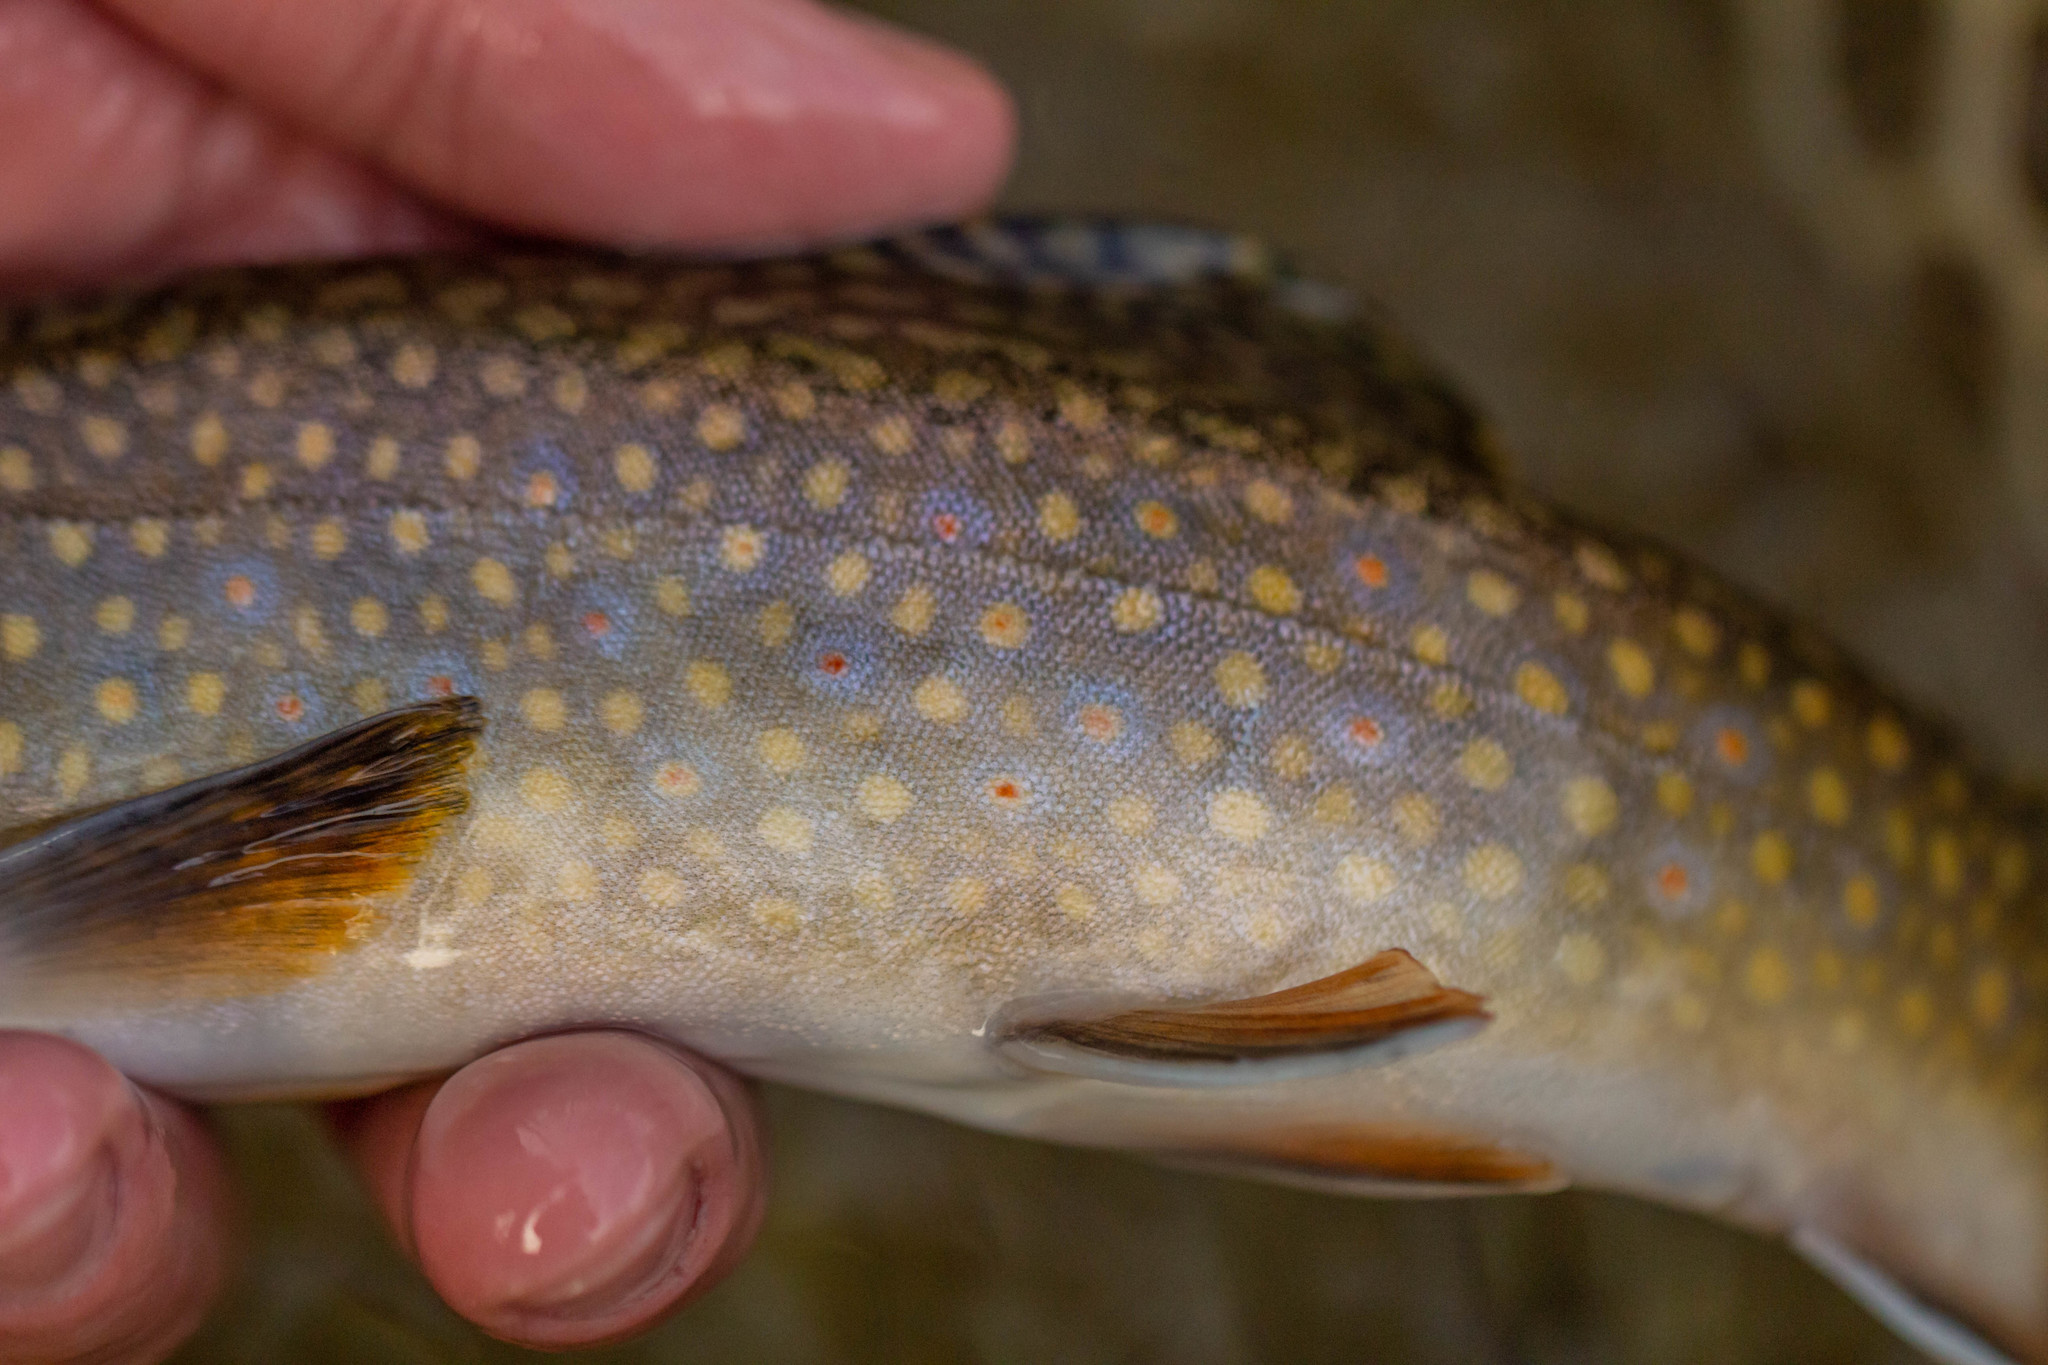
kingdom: Animalia
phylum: Chordata
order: Salmoniformes
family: Salmonidae
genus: Salvelinus
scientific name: Salvelinus fontinalis
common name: Brook trout
